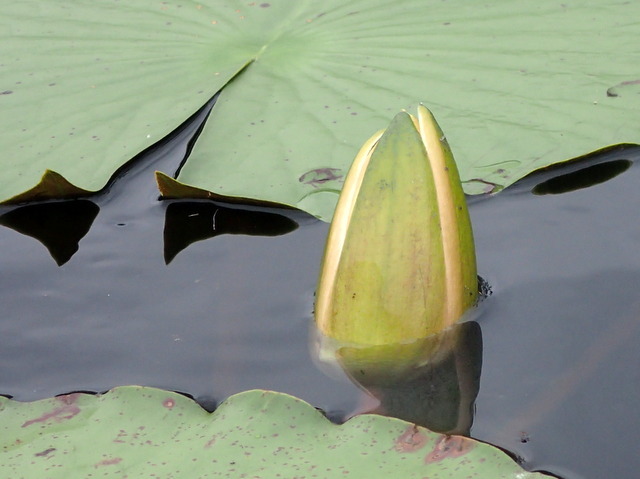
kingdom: Plantae
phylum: Tracheophyta
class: Magnoliopsida
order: Nymphaeales
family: Nymphaeaceae
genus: Nymphaea
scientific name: Nymphaea odorata
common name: Fragrant water-lily
